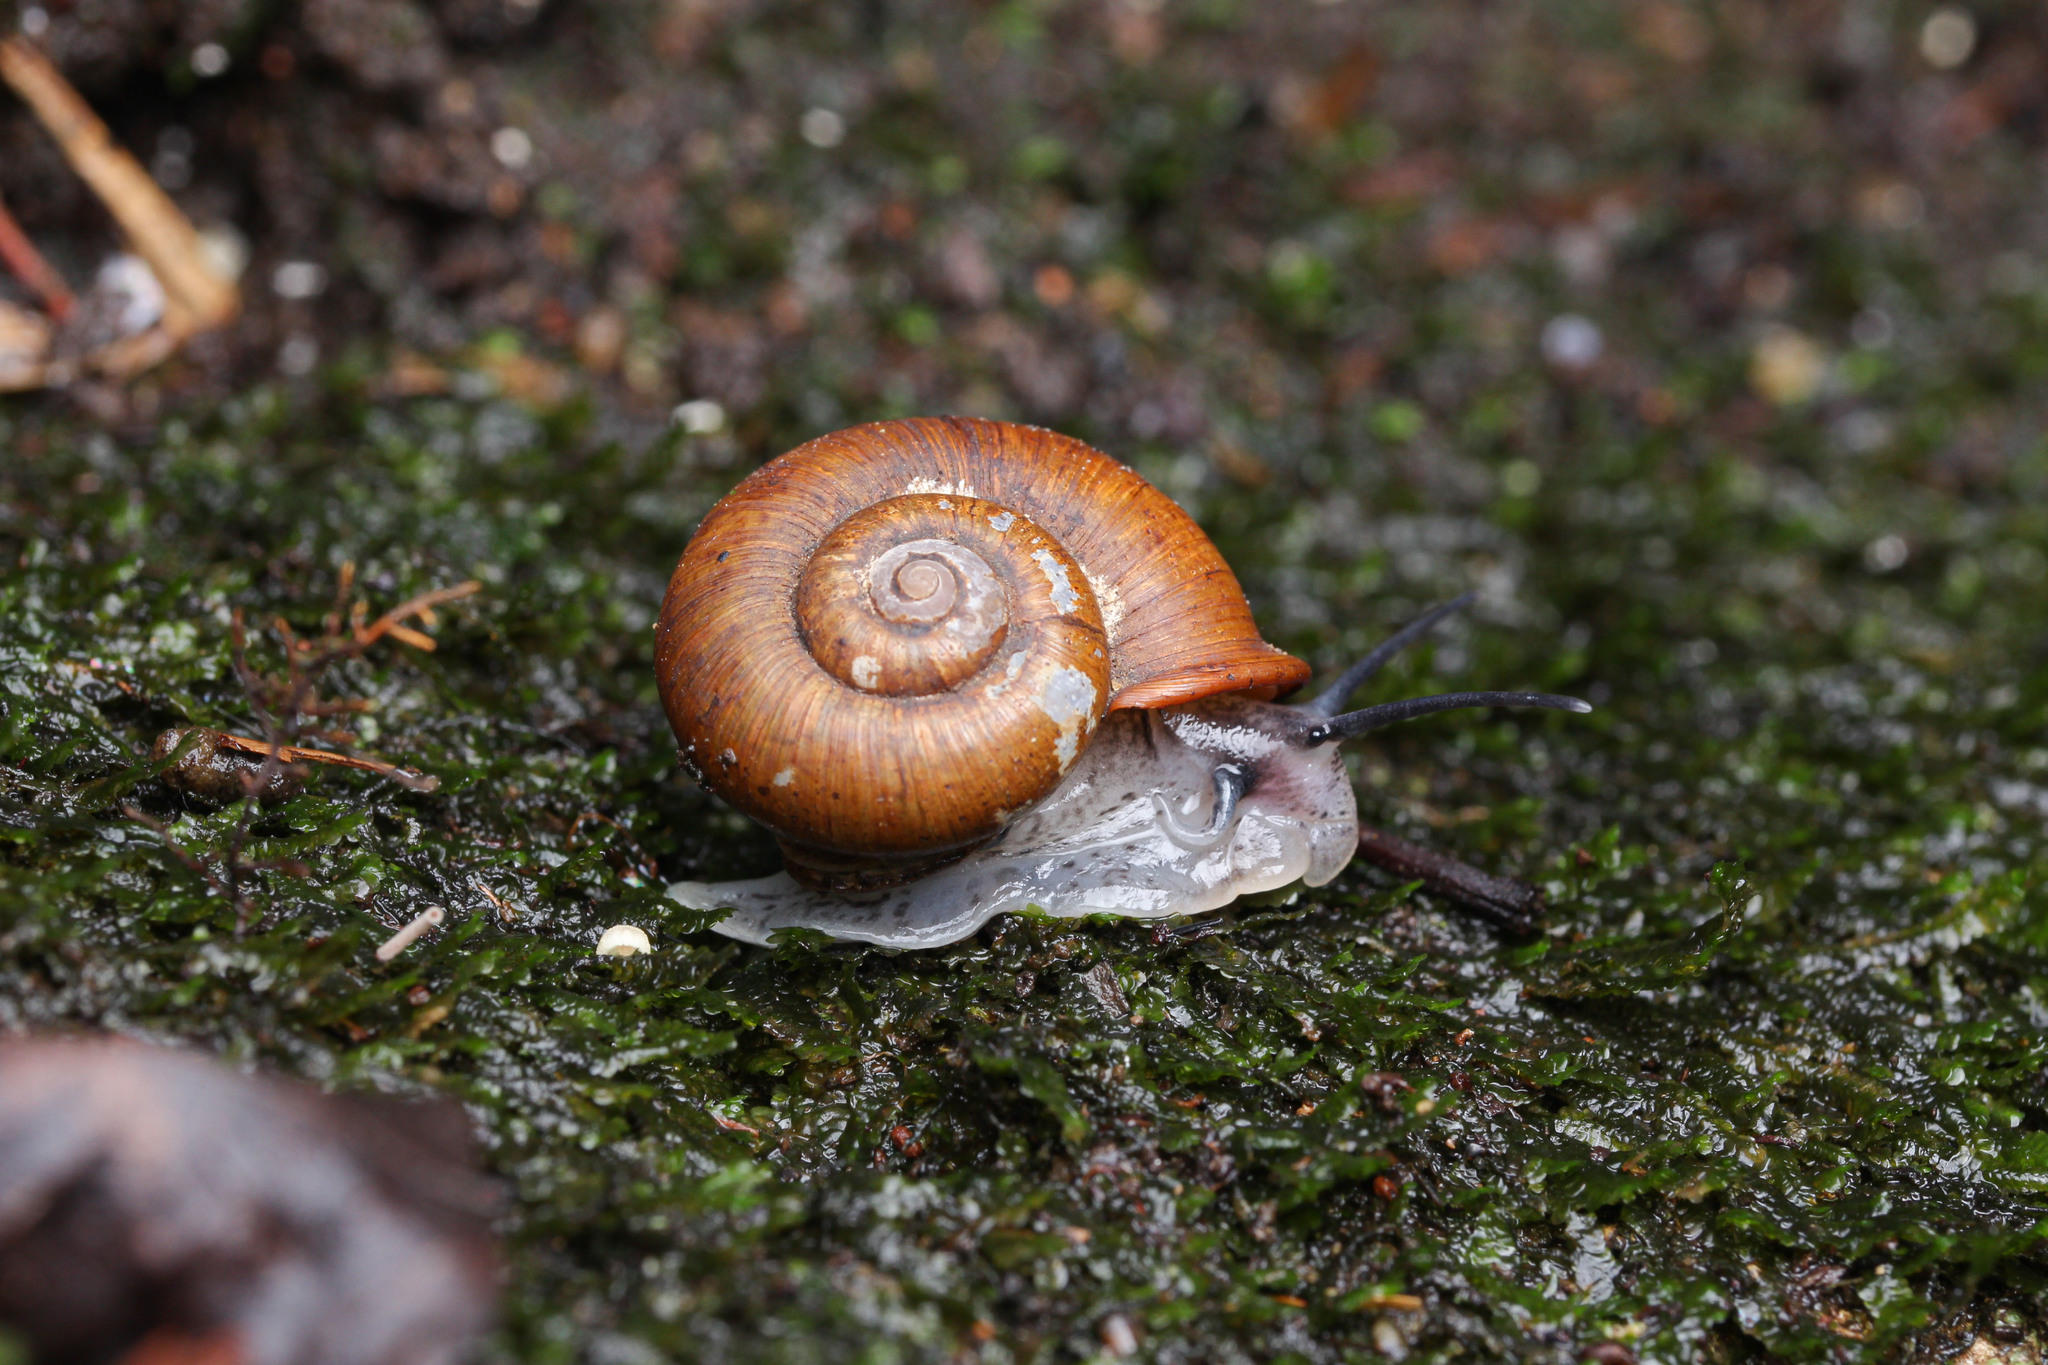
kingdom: Animalia
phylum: Mollusca
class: Gastropoda
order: Architaenioglossa
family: Cyclophoridae
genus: Cyclotus
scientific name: Cyclotus chinensis
